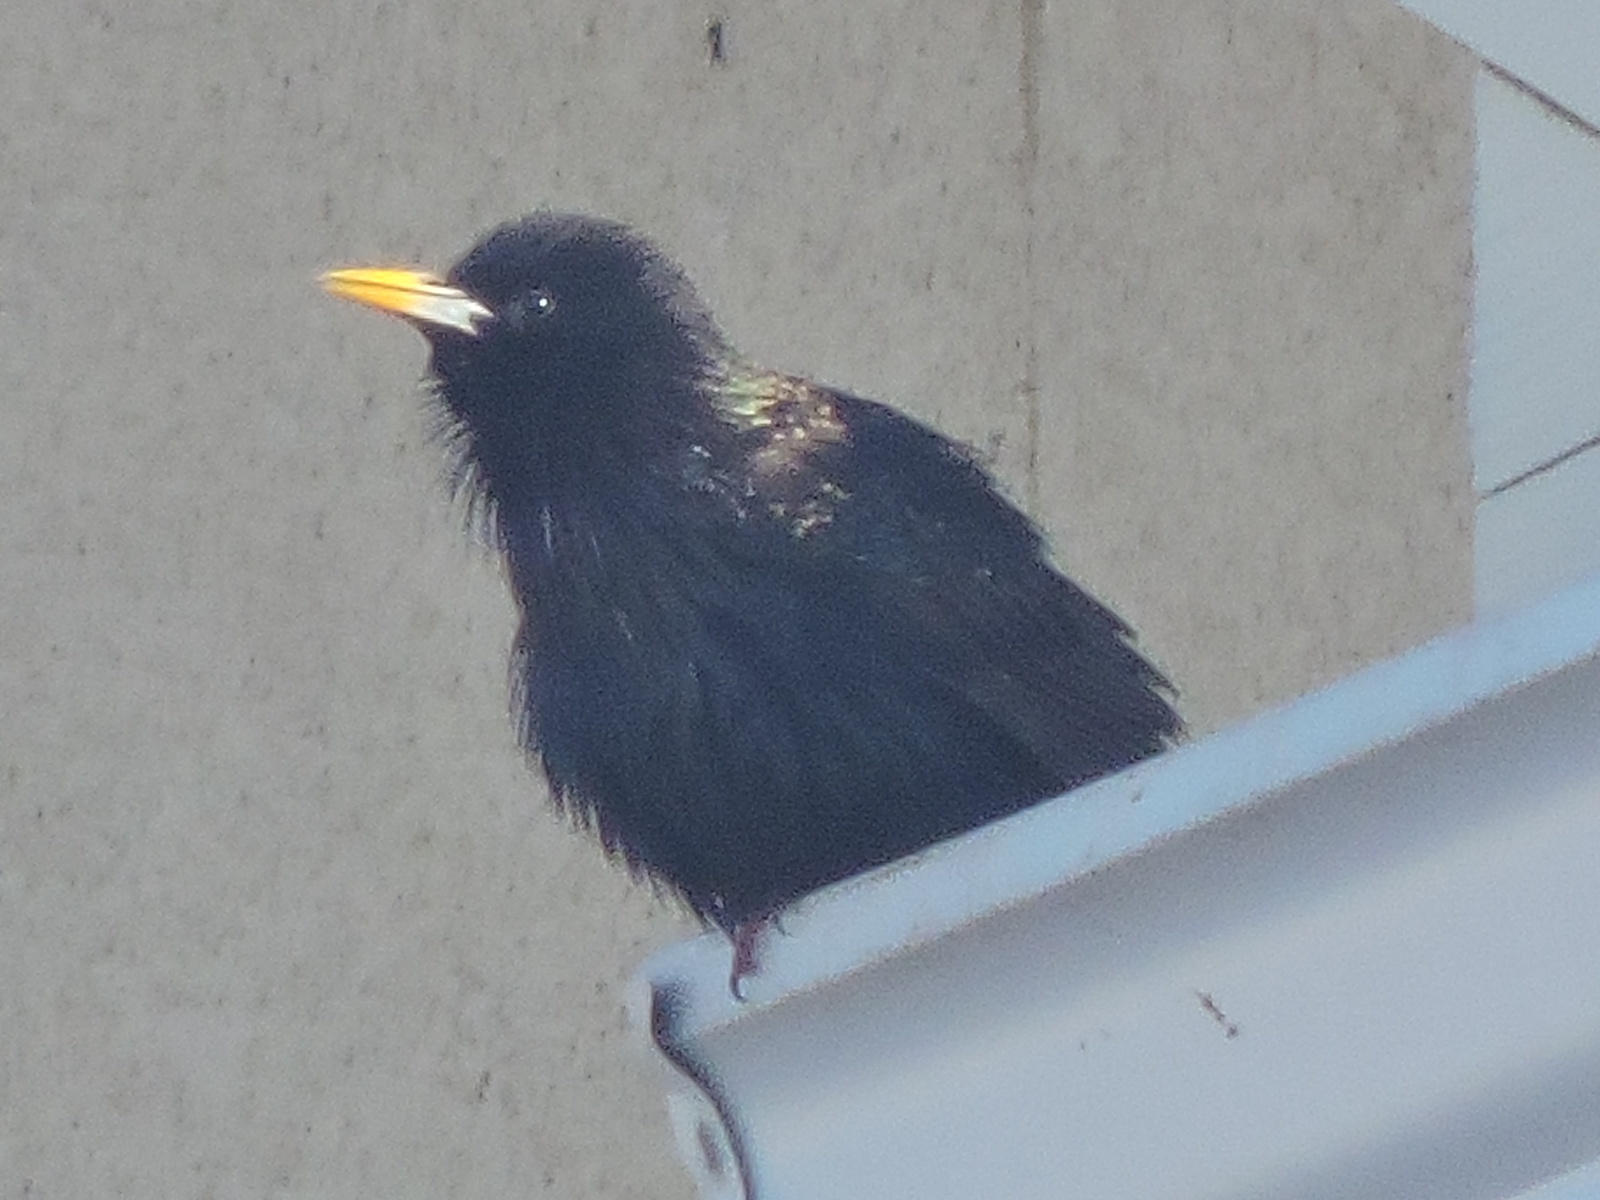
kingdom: Animalia
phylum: Chordata
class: Aves
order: Passeriformes
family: Sturnidae
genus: Sturnus
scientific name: Sturnus vulgaris
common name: Common starling
